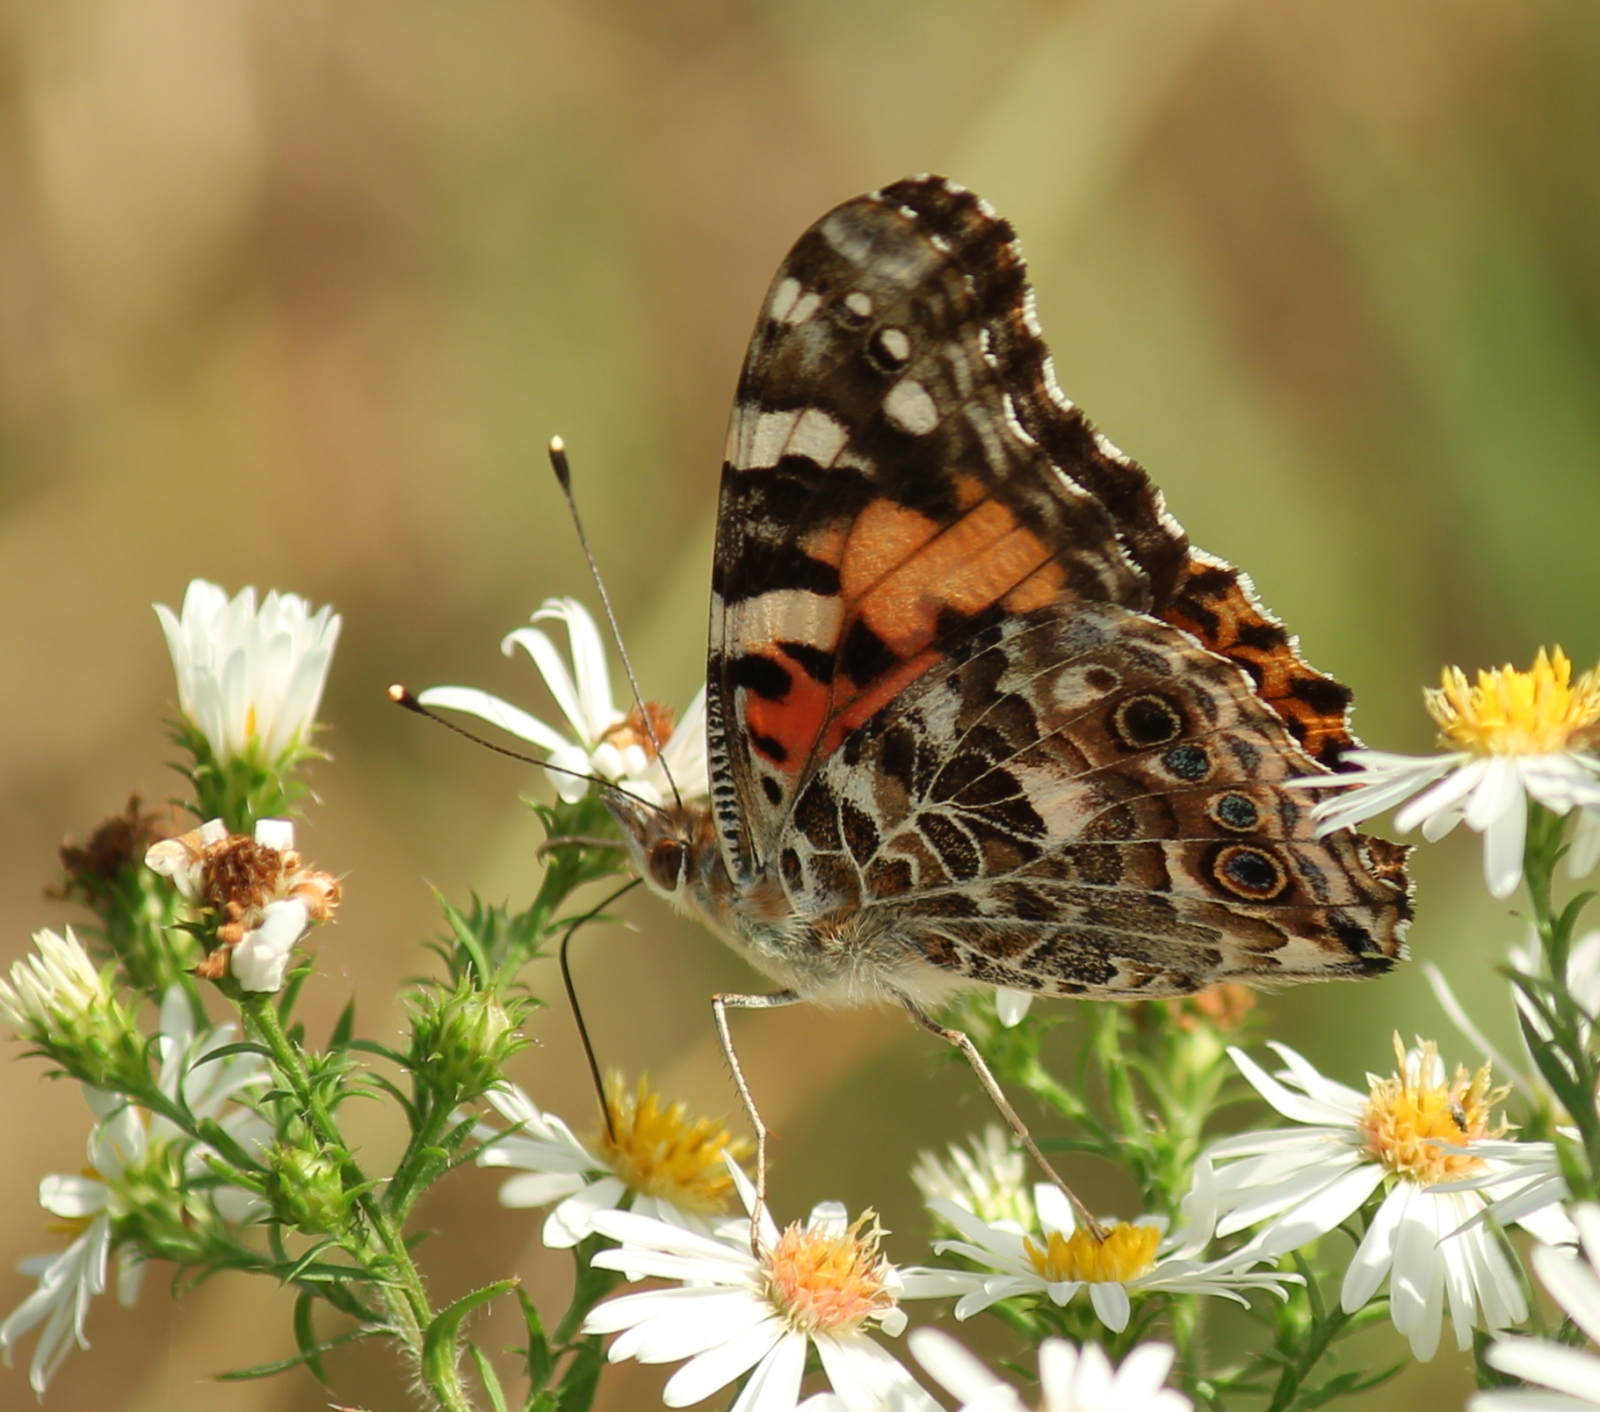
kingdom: Animalia
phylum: Arthropoda
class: Insecta
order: Lepidoptera
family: Nymphalidae
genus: Vanessa
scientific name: Vanessa cardui
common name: Painted lady
